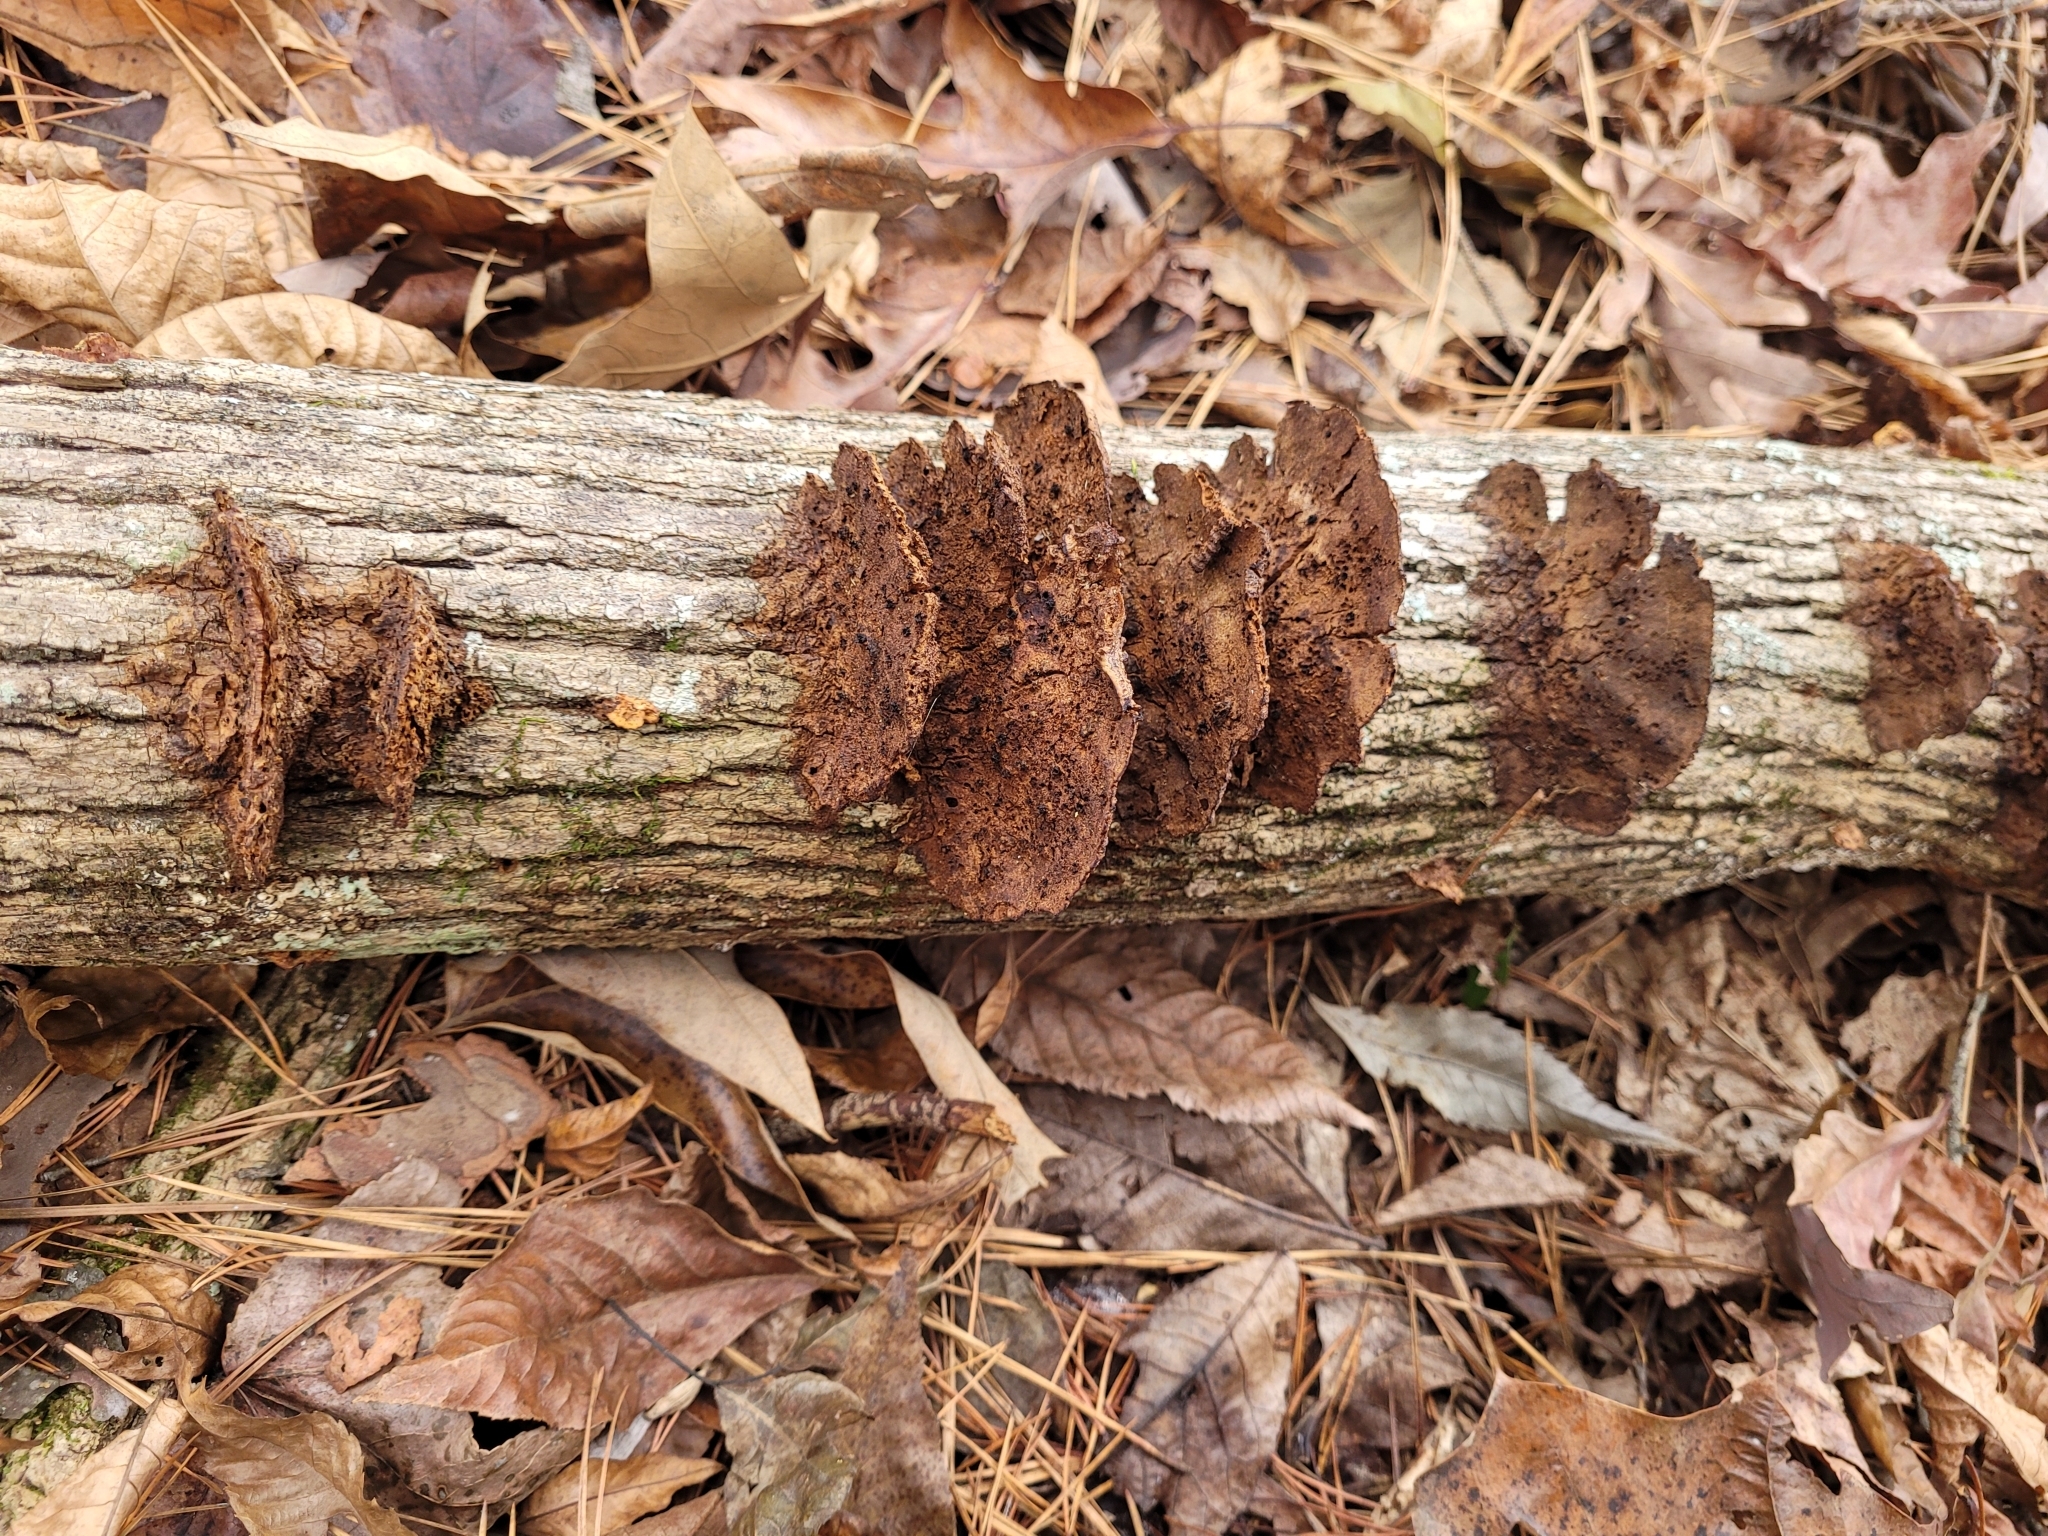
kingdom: Fungi
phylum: Basidiomycota
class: Agaricomycetes
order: Hymenochaetales
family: Hymenochaetaceae
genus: Phellinus
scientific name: Phellinus gilvus
